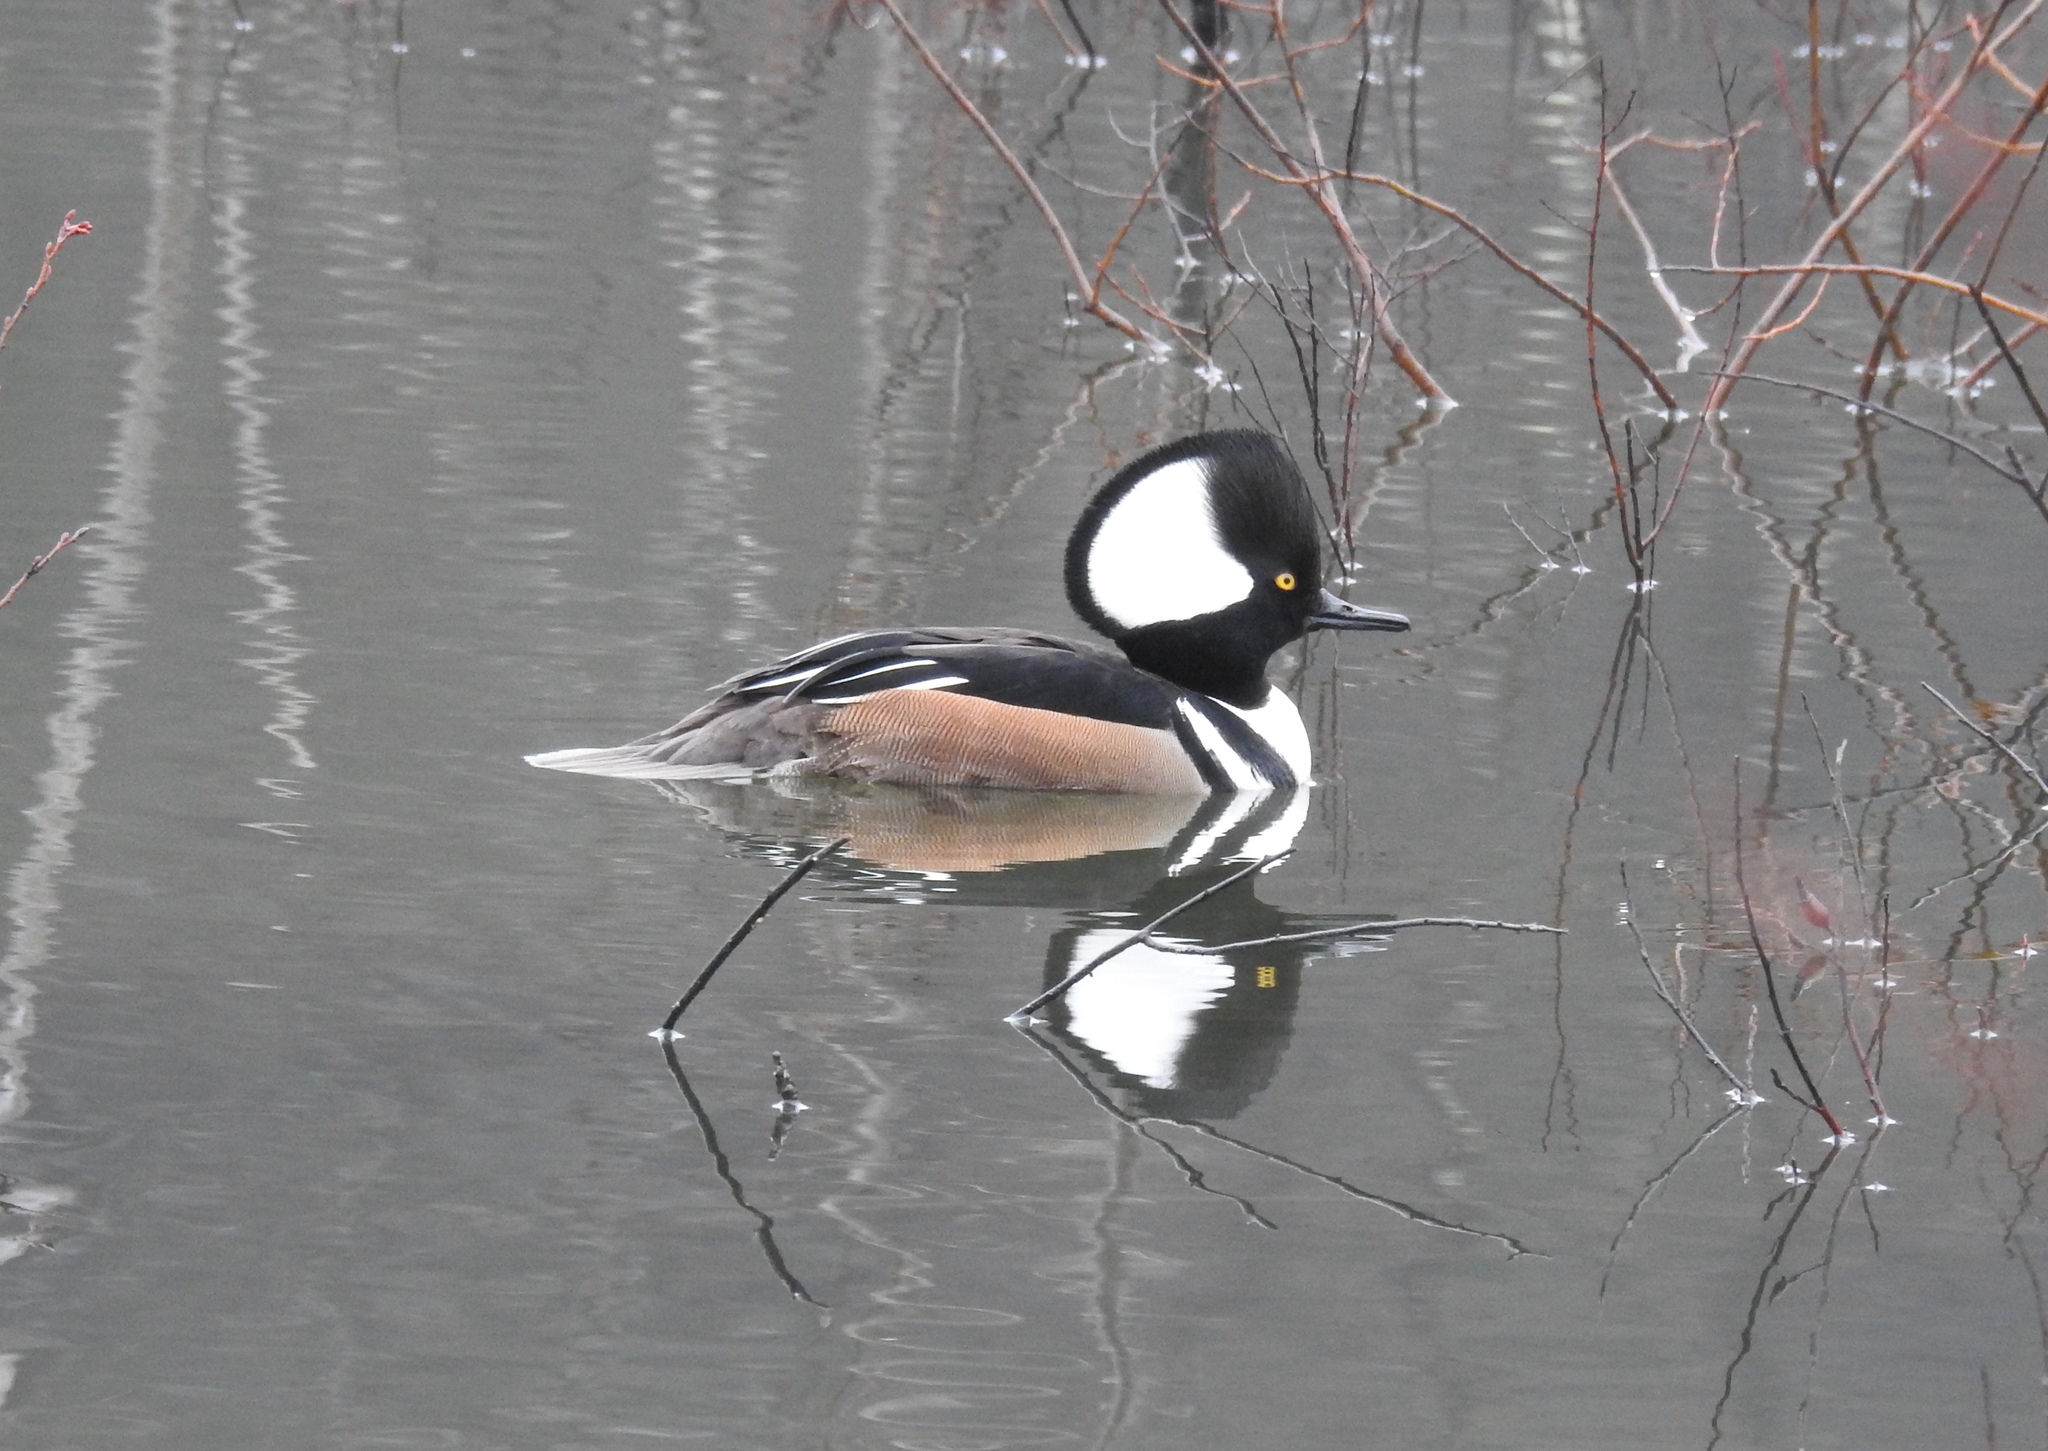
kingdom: Animalia
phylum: Chordata
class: Aves
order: Anseriformes
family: Anatidae
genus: Lophodytes
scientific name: Lophodytes cucullatus
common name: Hooded merganser
